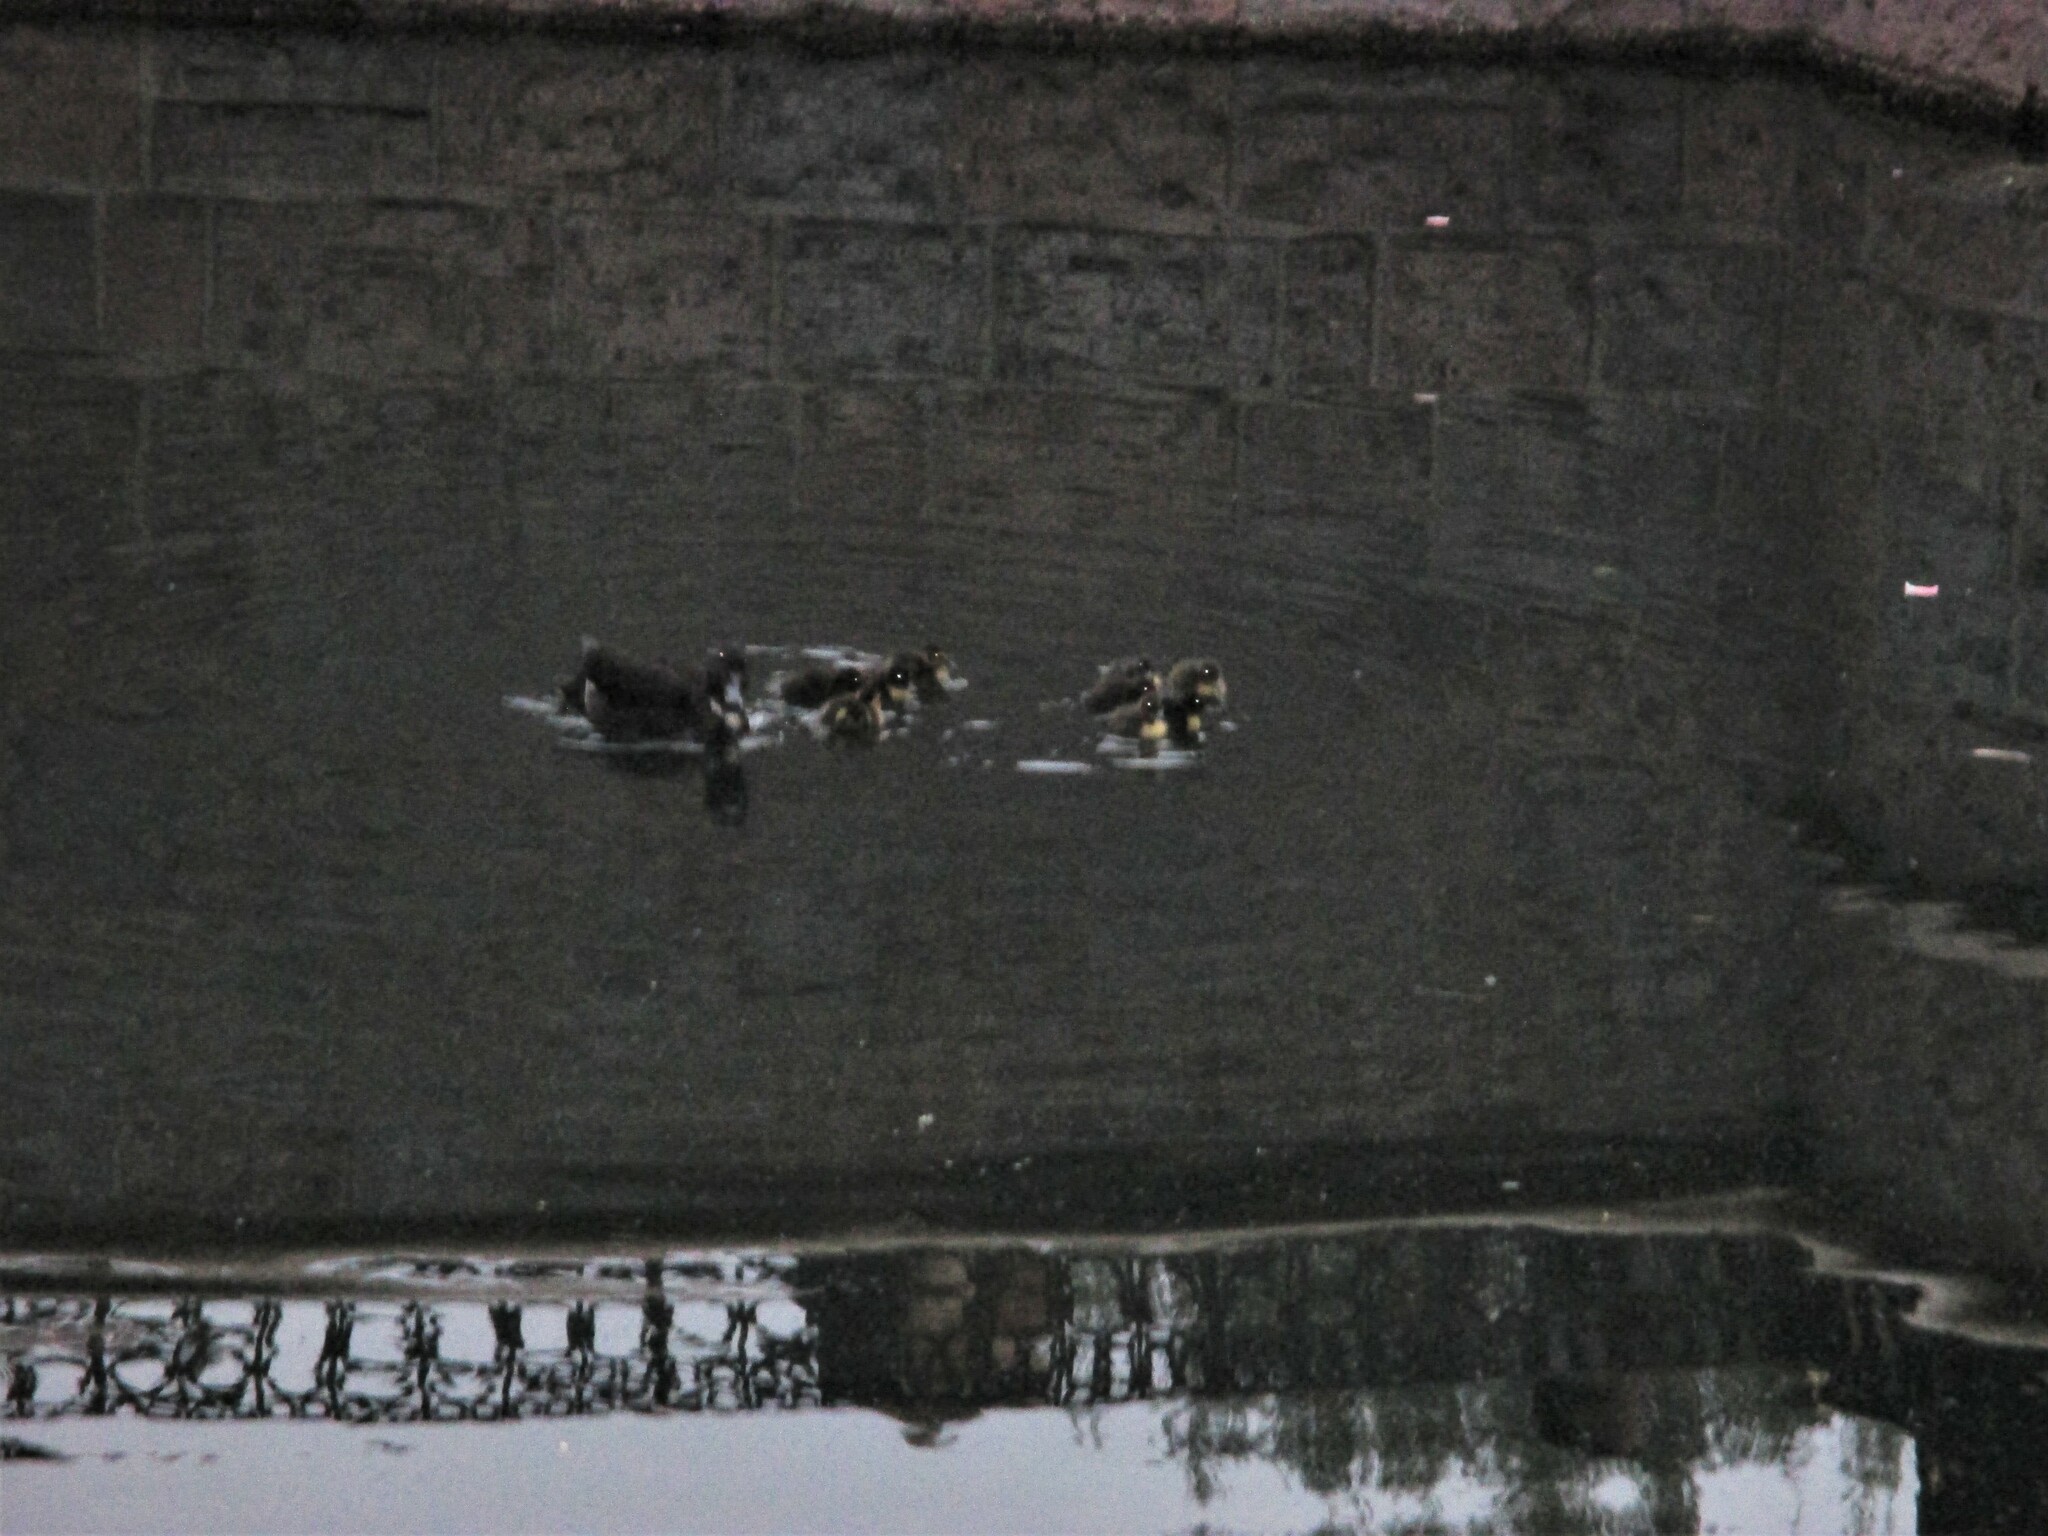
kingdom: Animalia
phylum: Chordata
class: Aves
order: Anseriformes
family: Anatidae
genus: Anas
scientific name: Anas platyrhynchos
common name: Mallard
